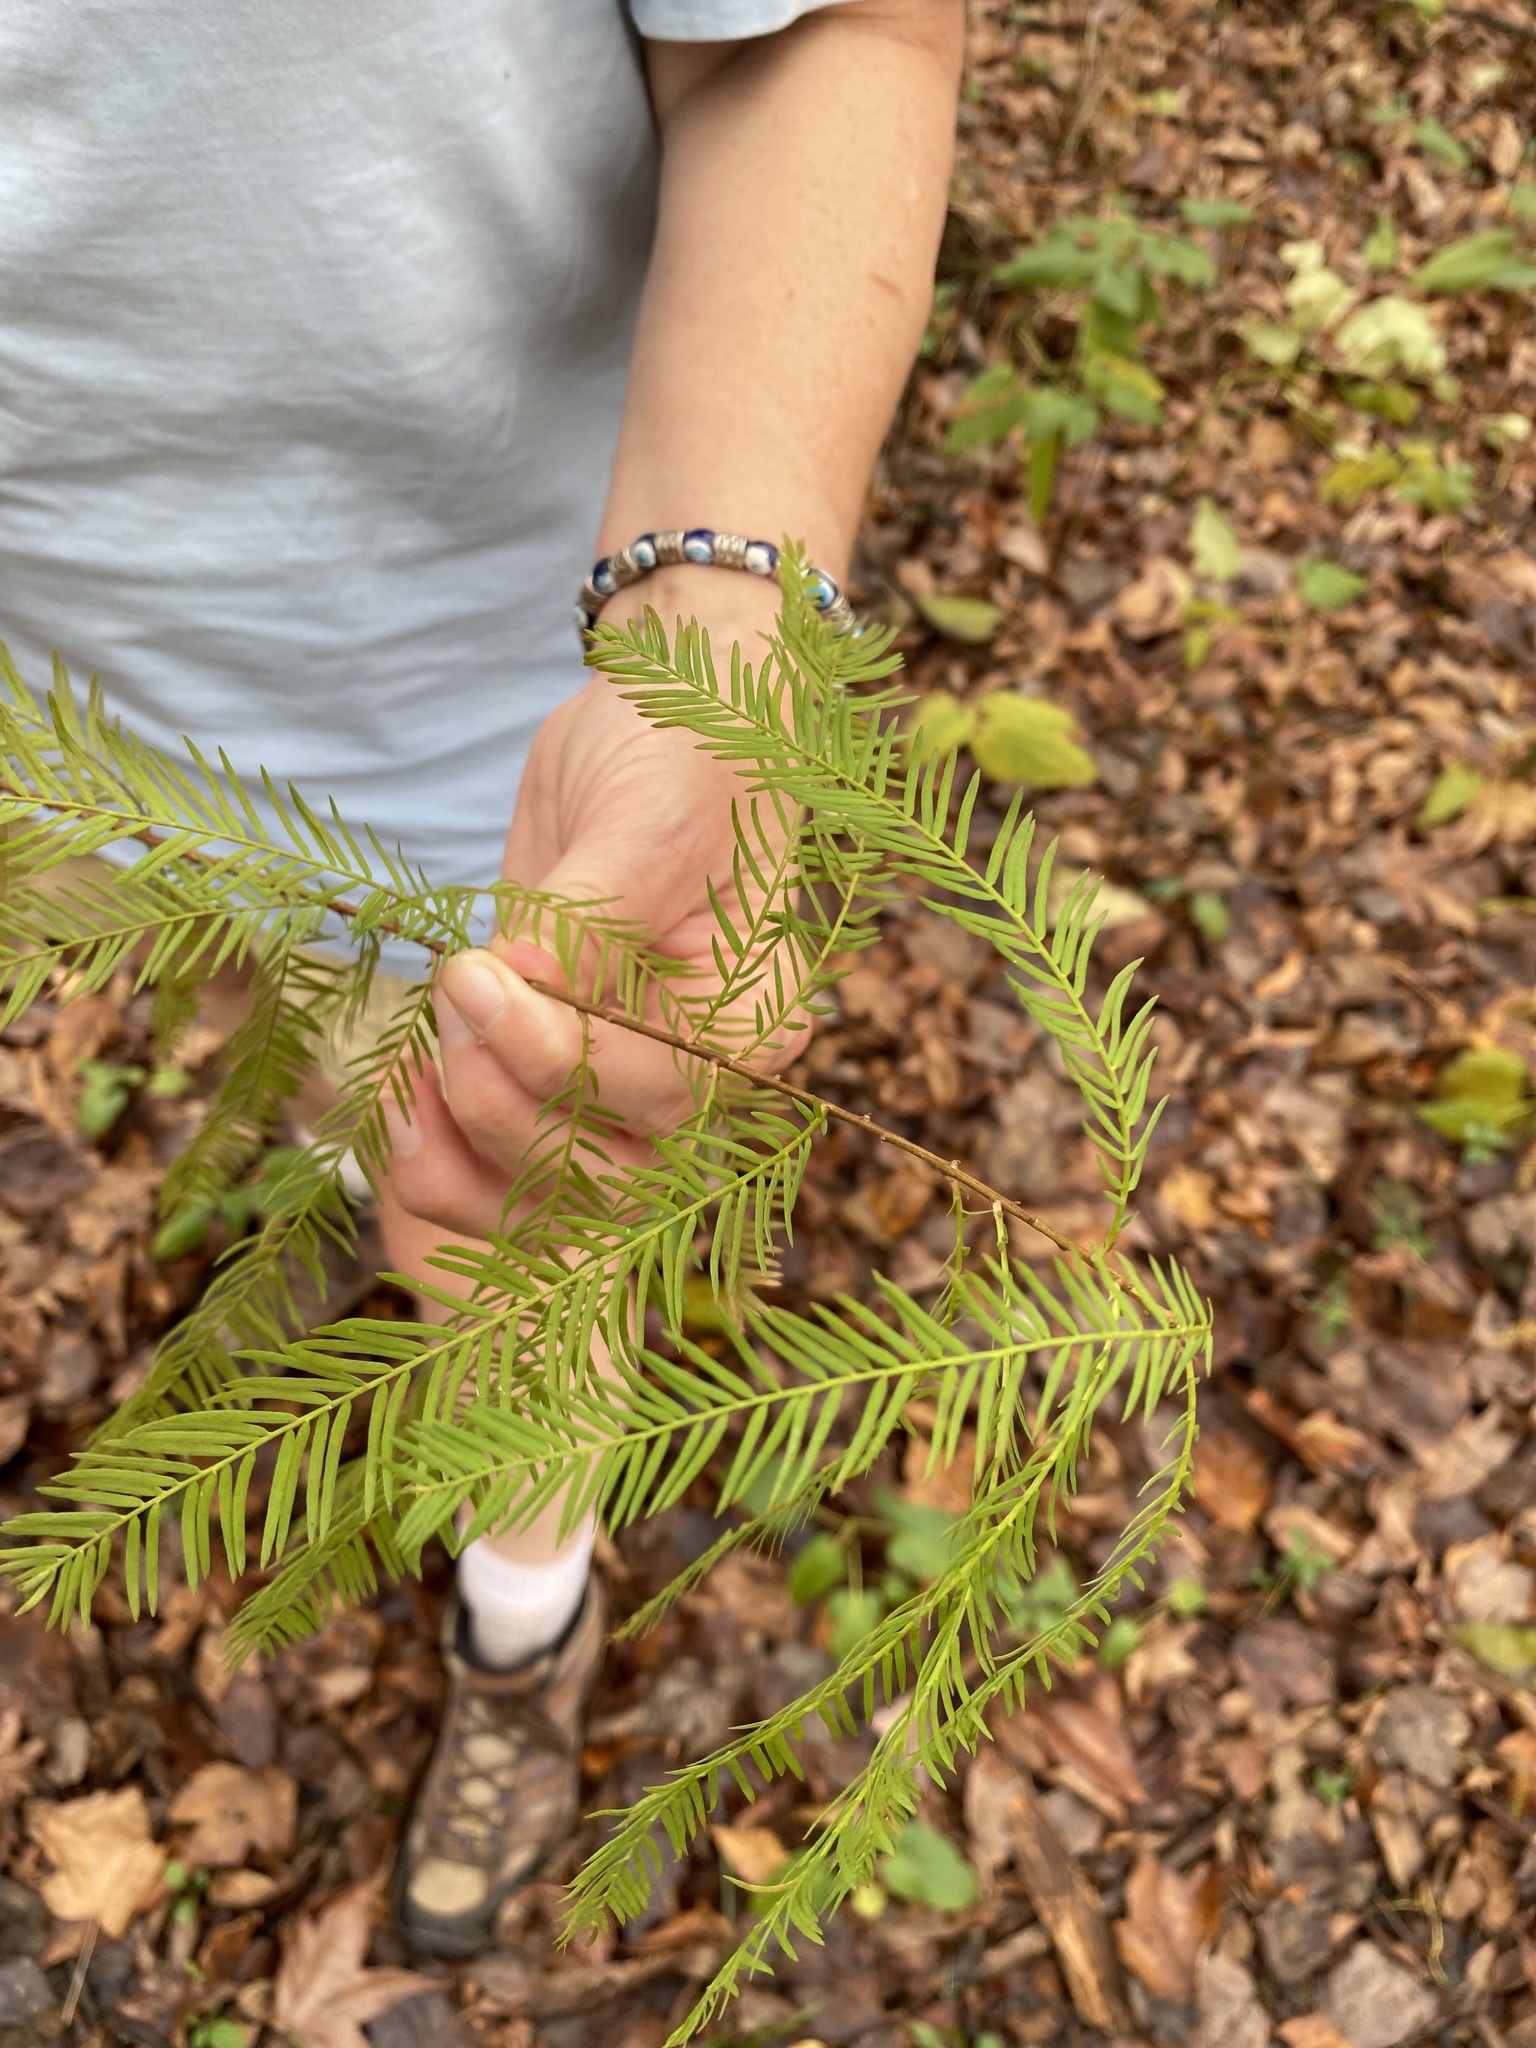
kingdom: Plantae
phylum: Tracheophyta
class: Pinopsida
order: Pinales
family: Cupressaceae
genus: Taxodium
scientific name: Taxodium distichum
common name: Bald cypress
